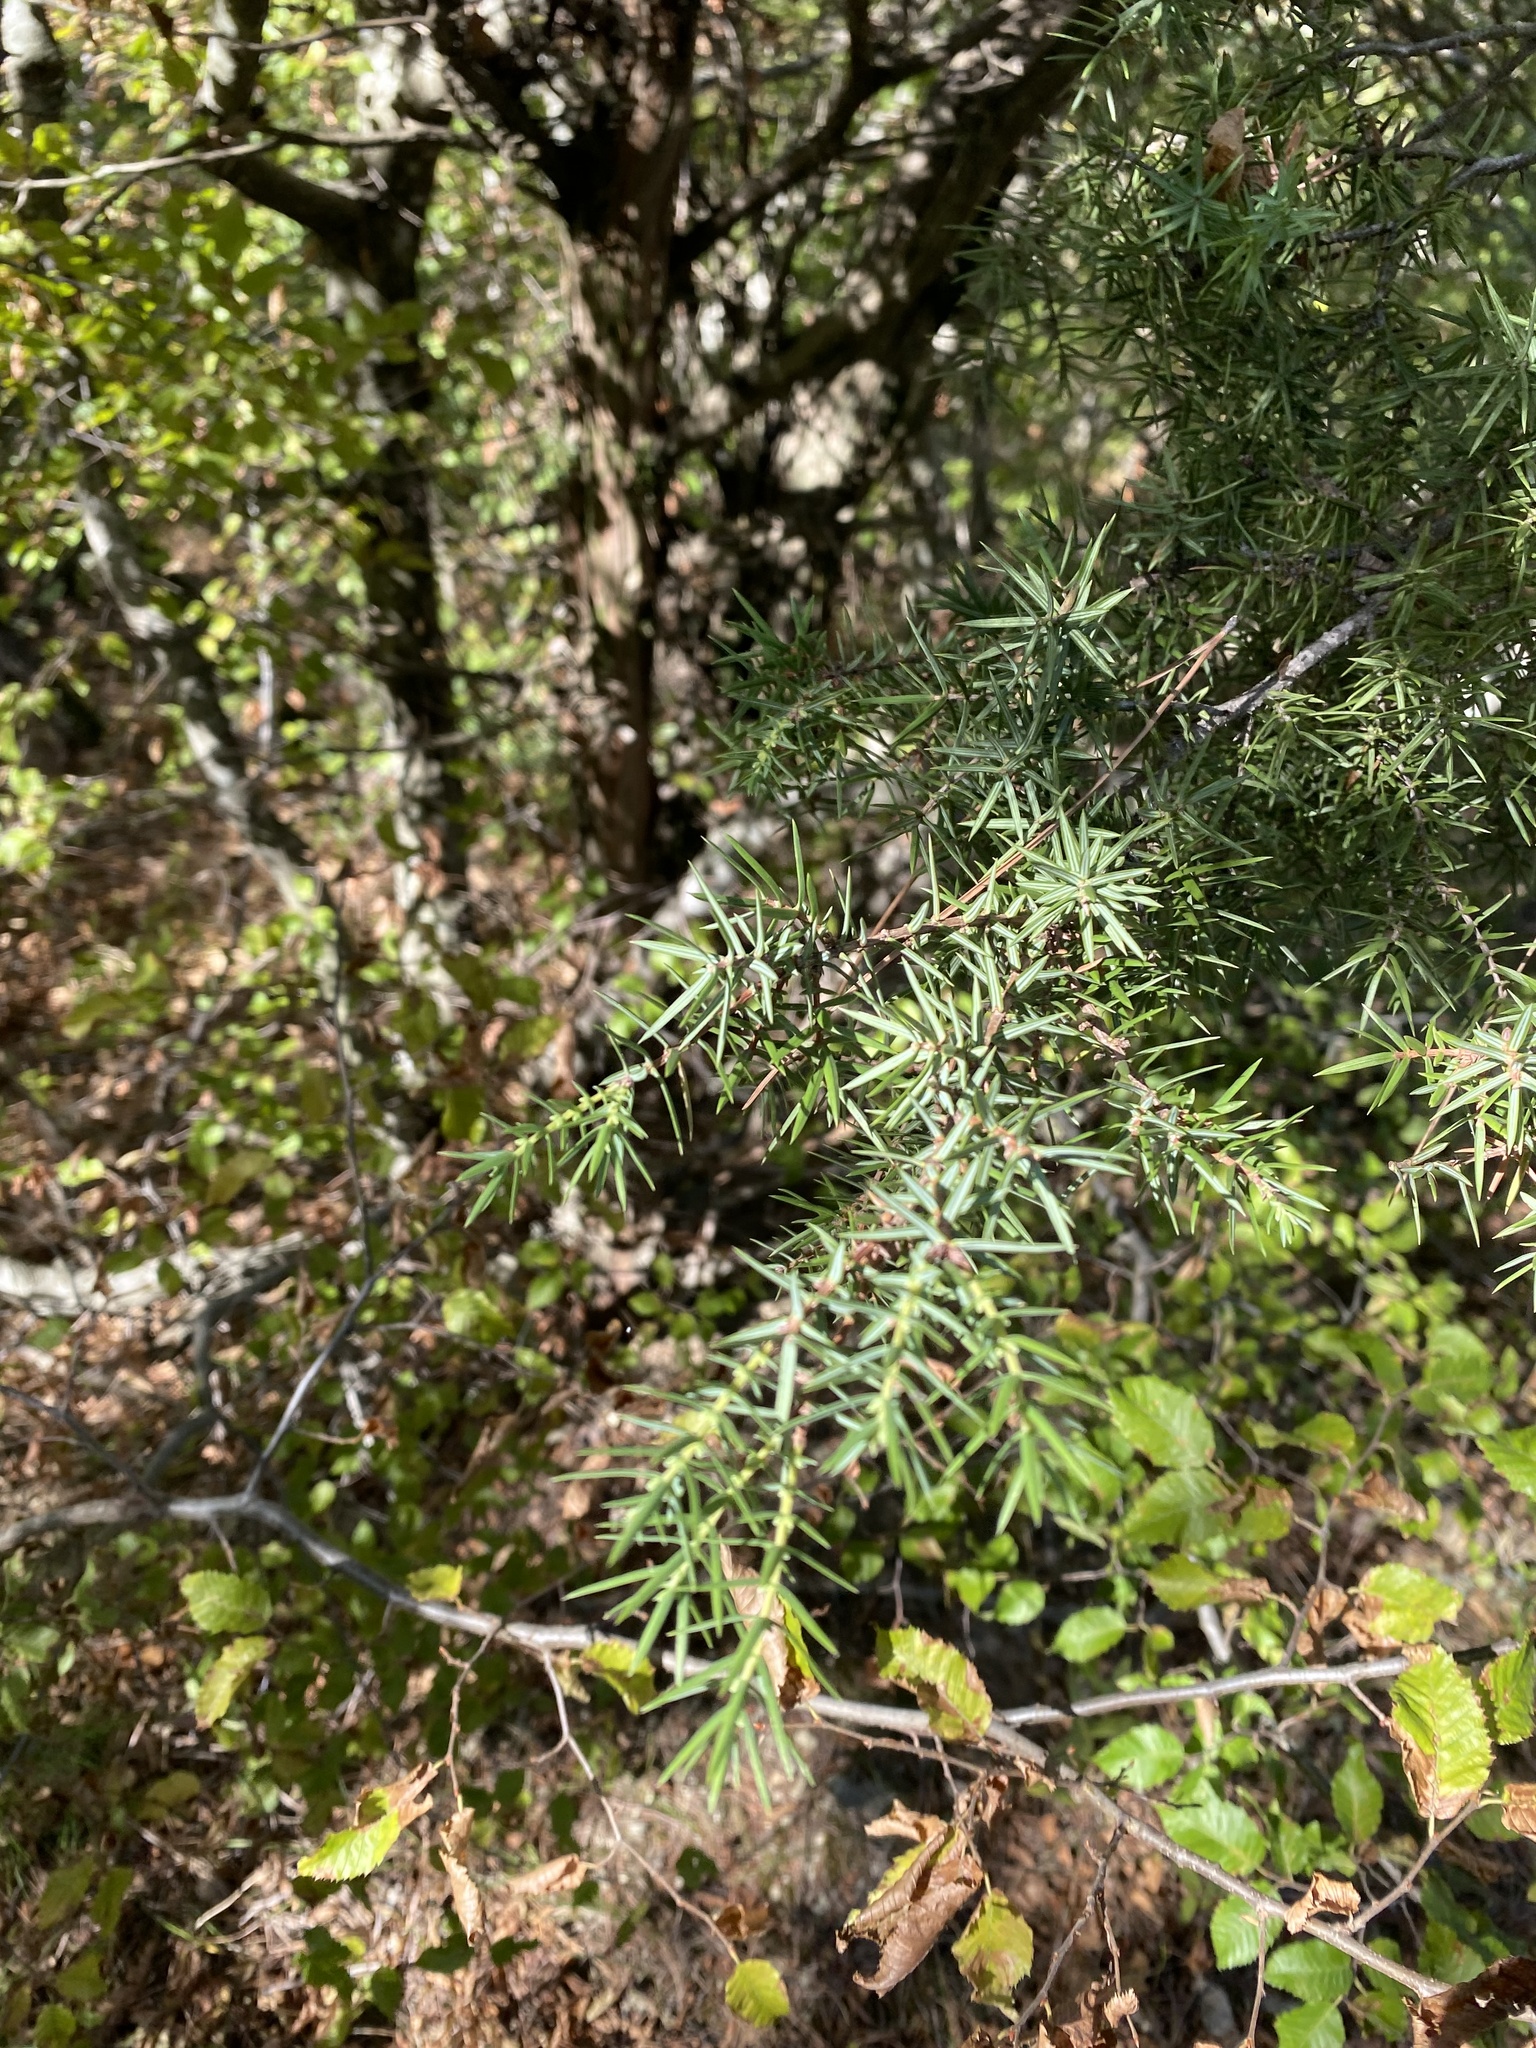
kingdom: Plantae
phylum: Tracheophyta
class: Pinopsida
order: Pinales
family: Cupressaceae
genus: Juniperus
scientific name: Juniperus oxycedrus
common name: Prickly juniper
